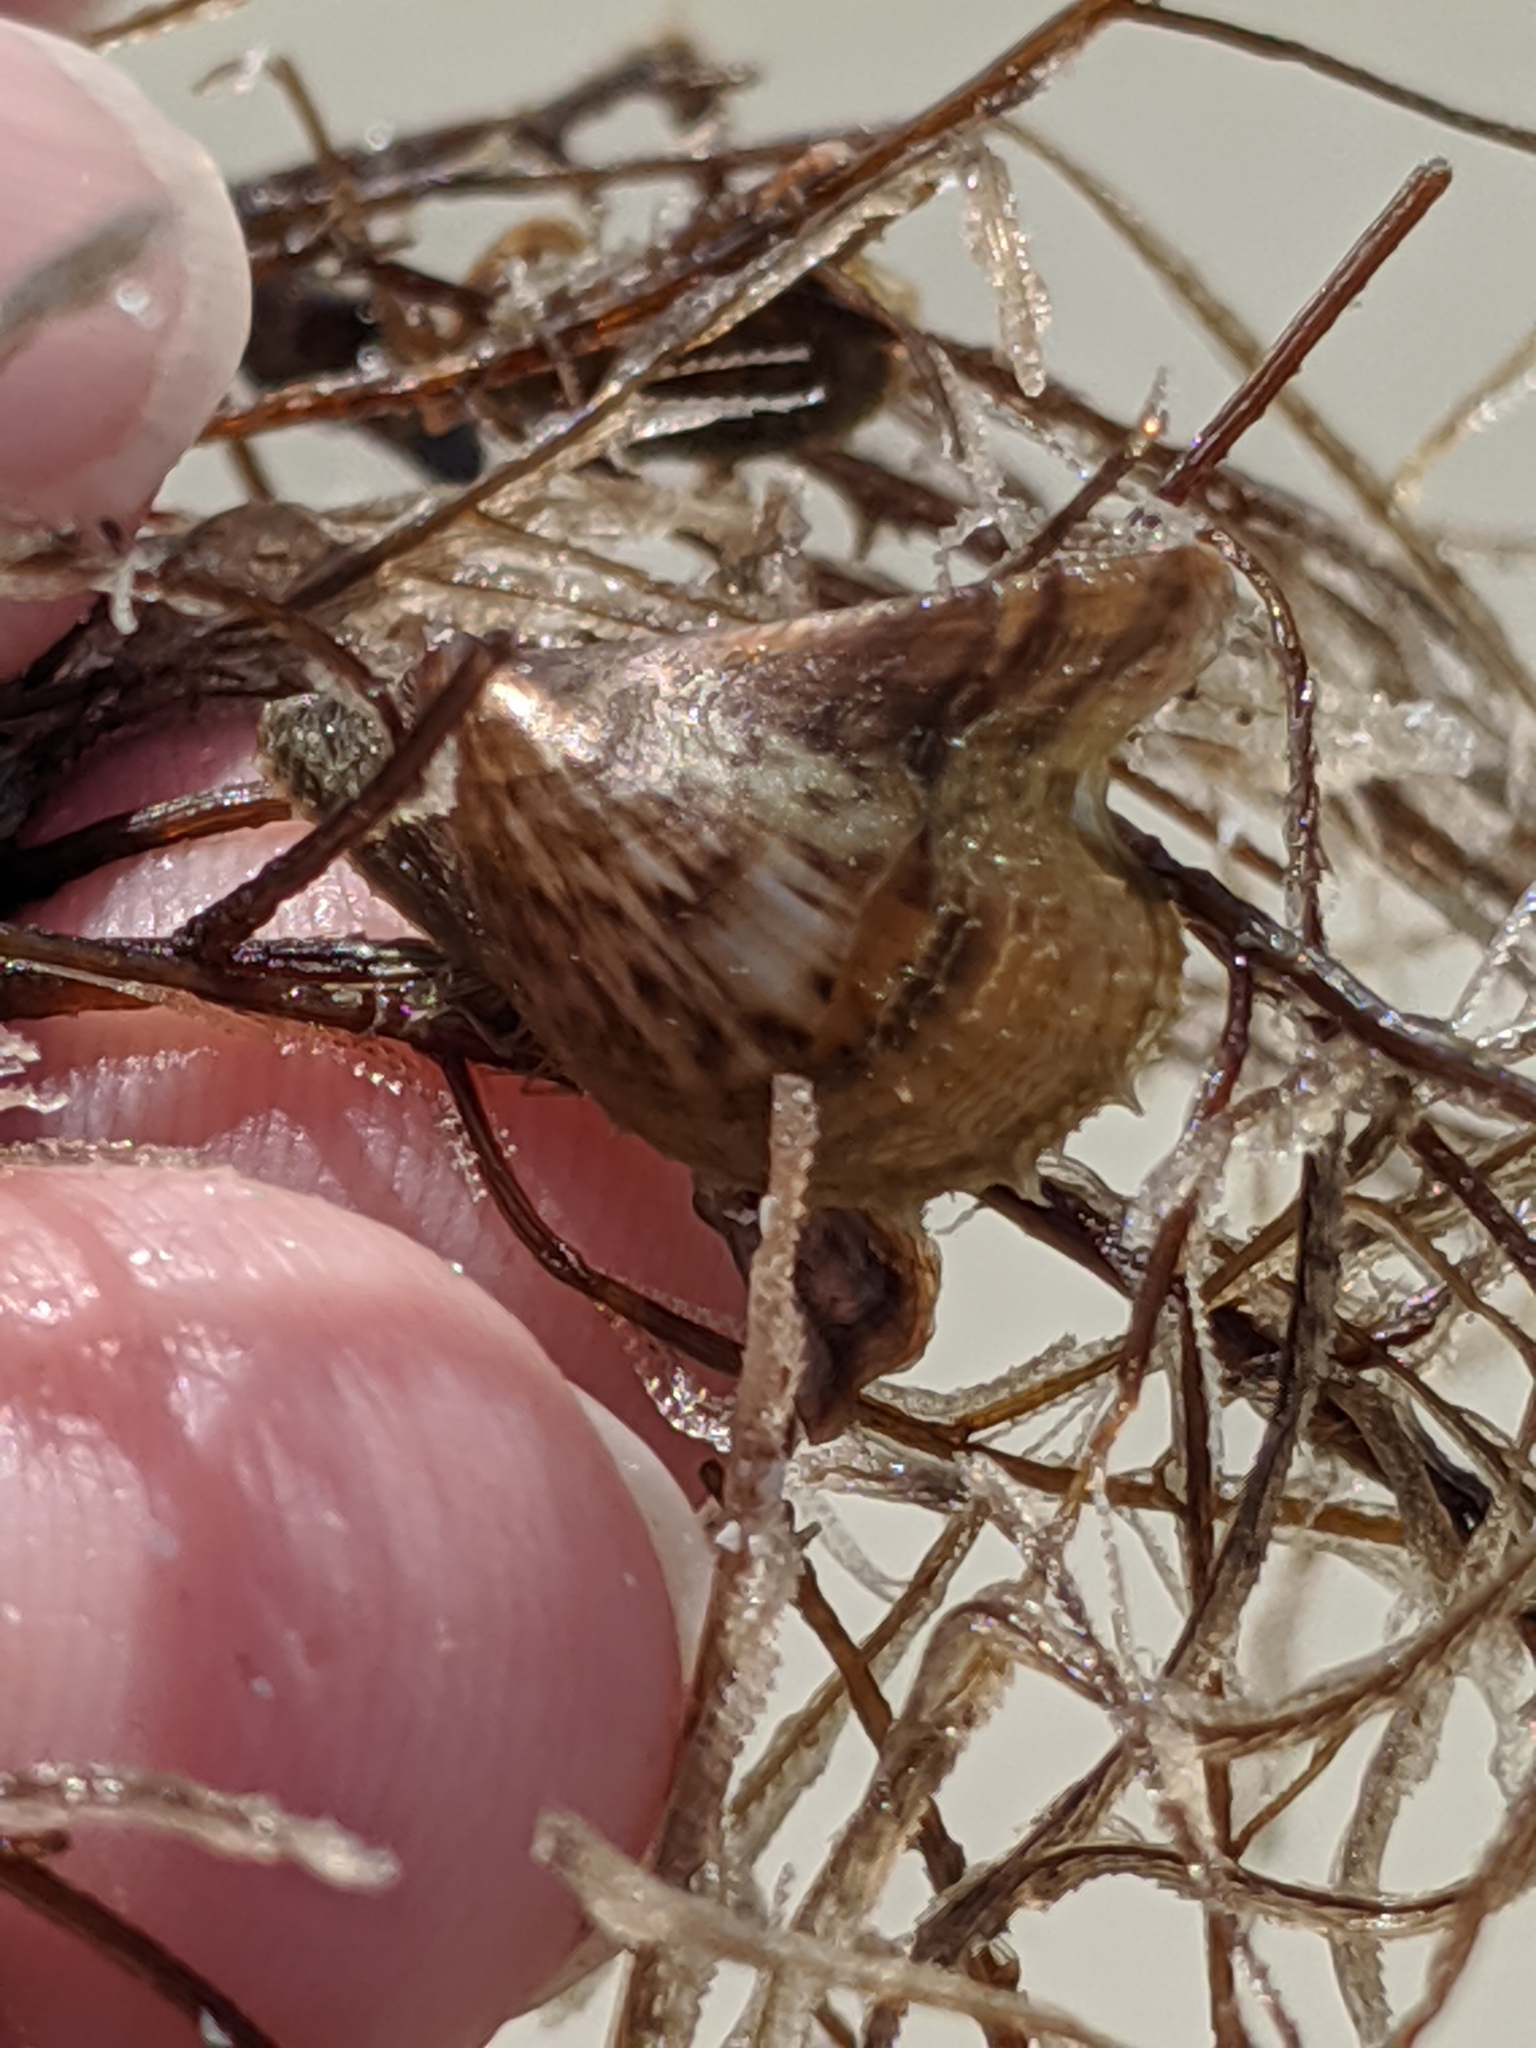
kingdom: Animalia
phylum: Mollusca
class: Bivalvia
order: Ostreida
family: Pteriidae
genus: Pteria
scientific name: Pteria colymbus
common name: Atlantic wing-oyster
